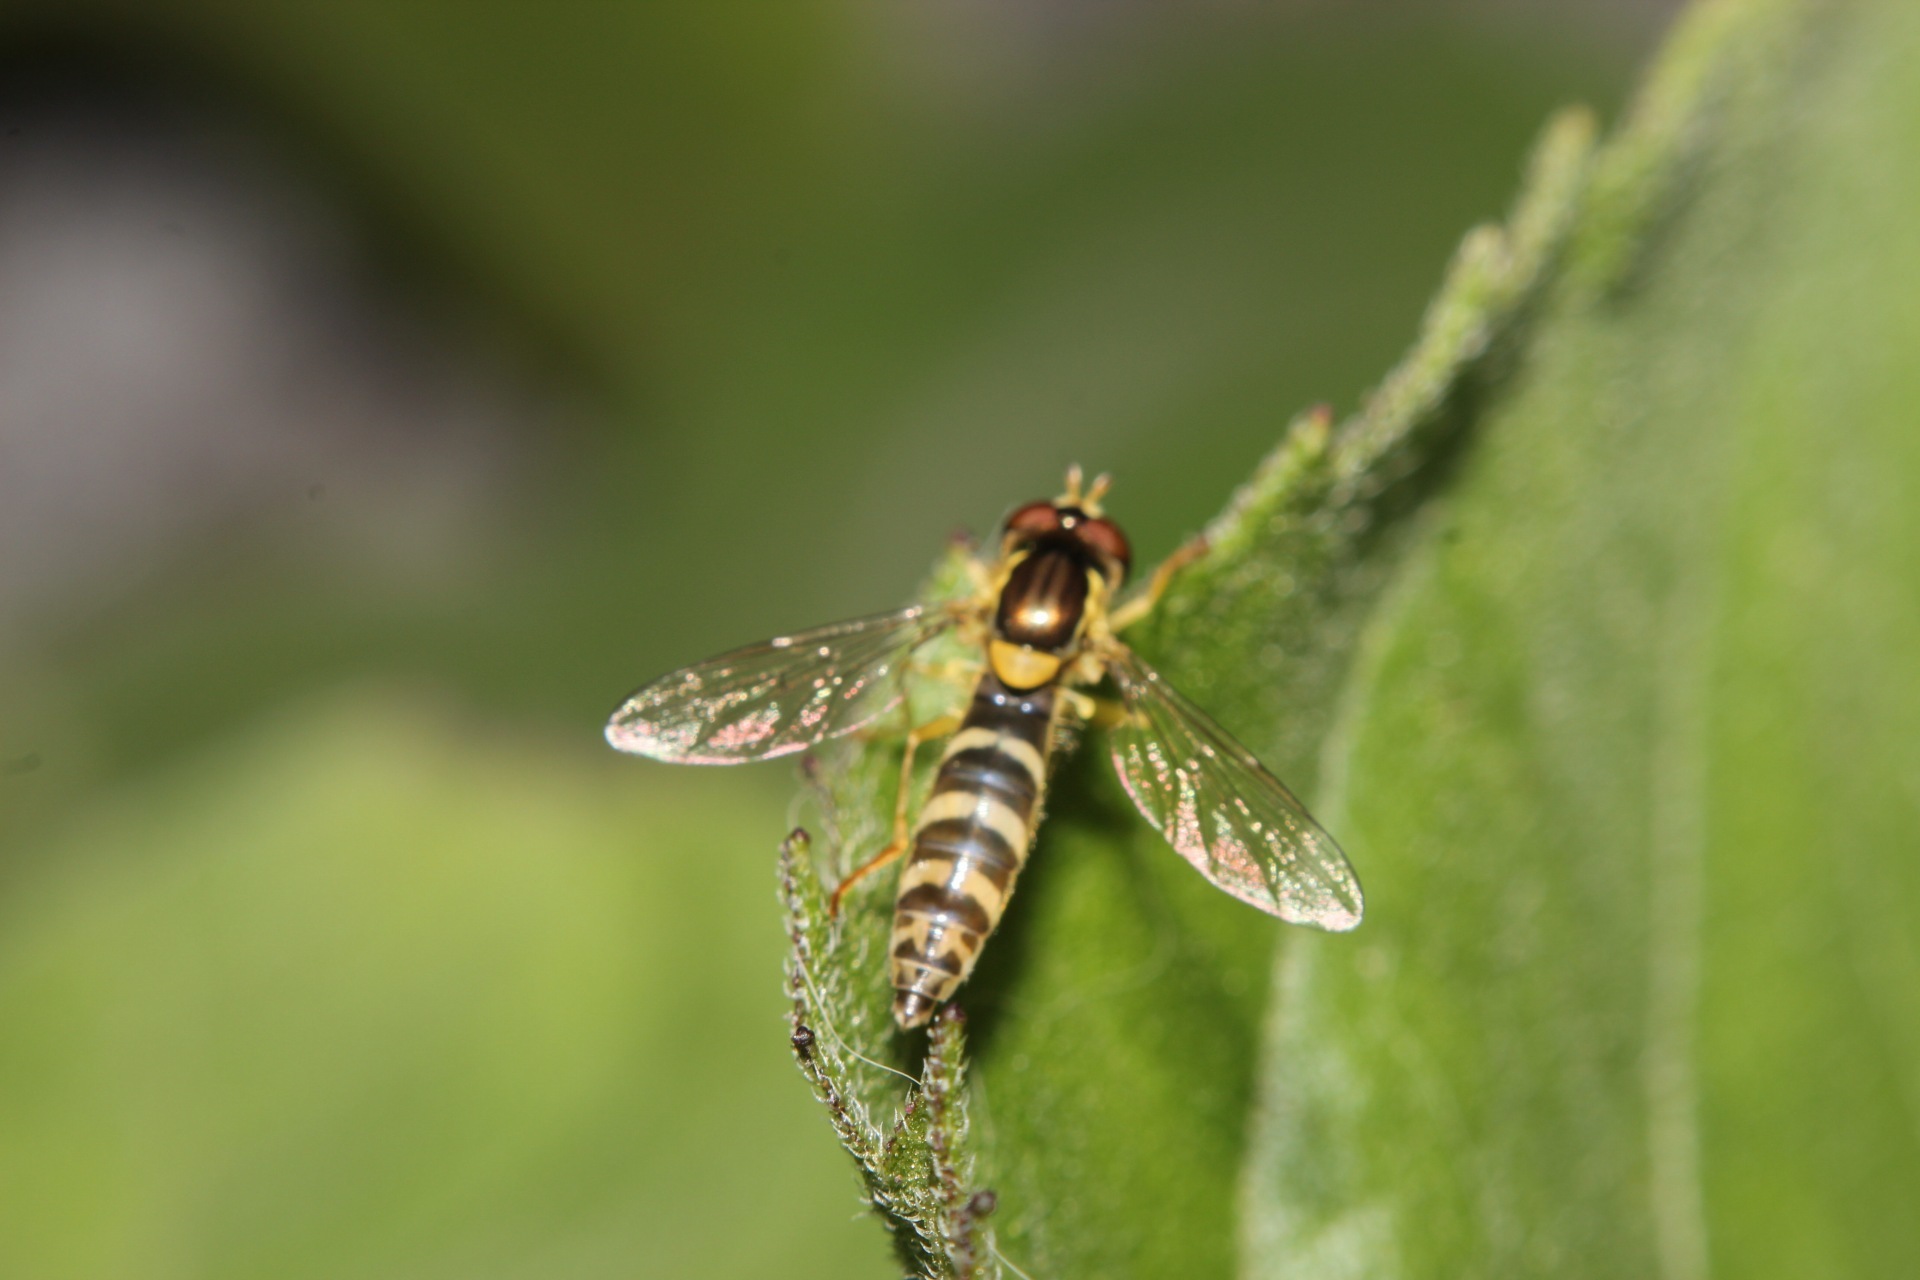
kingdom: Animalia
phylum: Arthropoda
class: Insecta
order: Diptera
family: Syrphidae
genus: Sphaerophoria
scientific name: Sphaerophoria scripta
